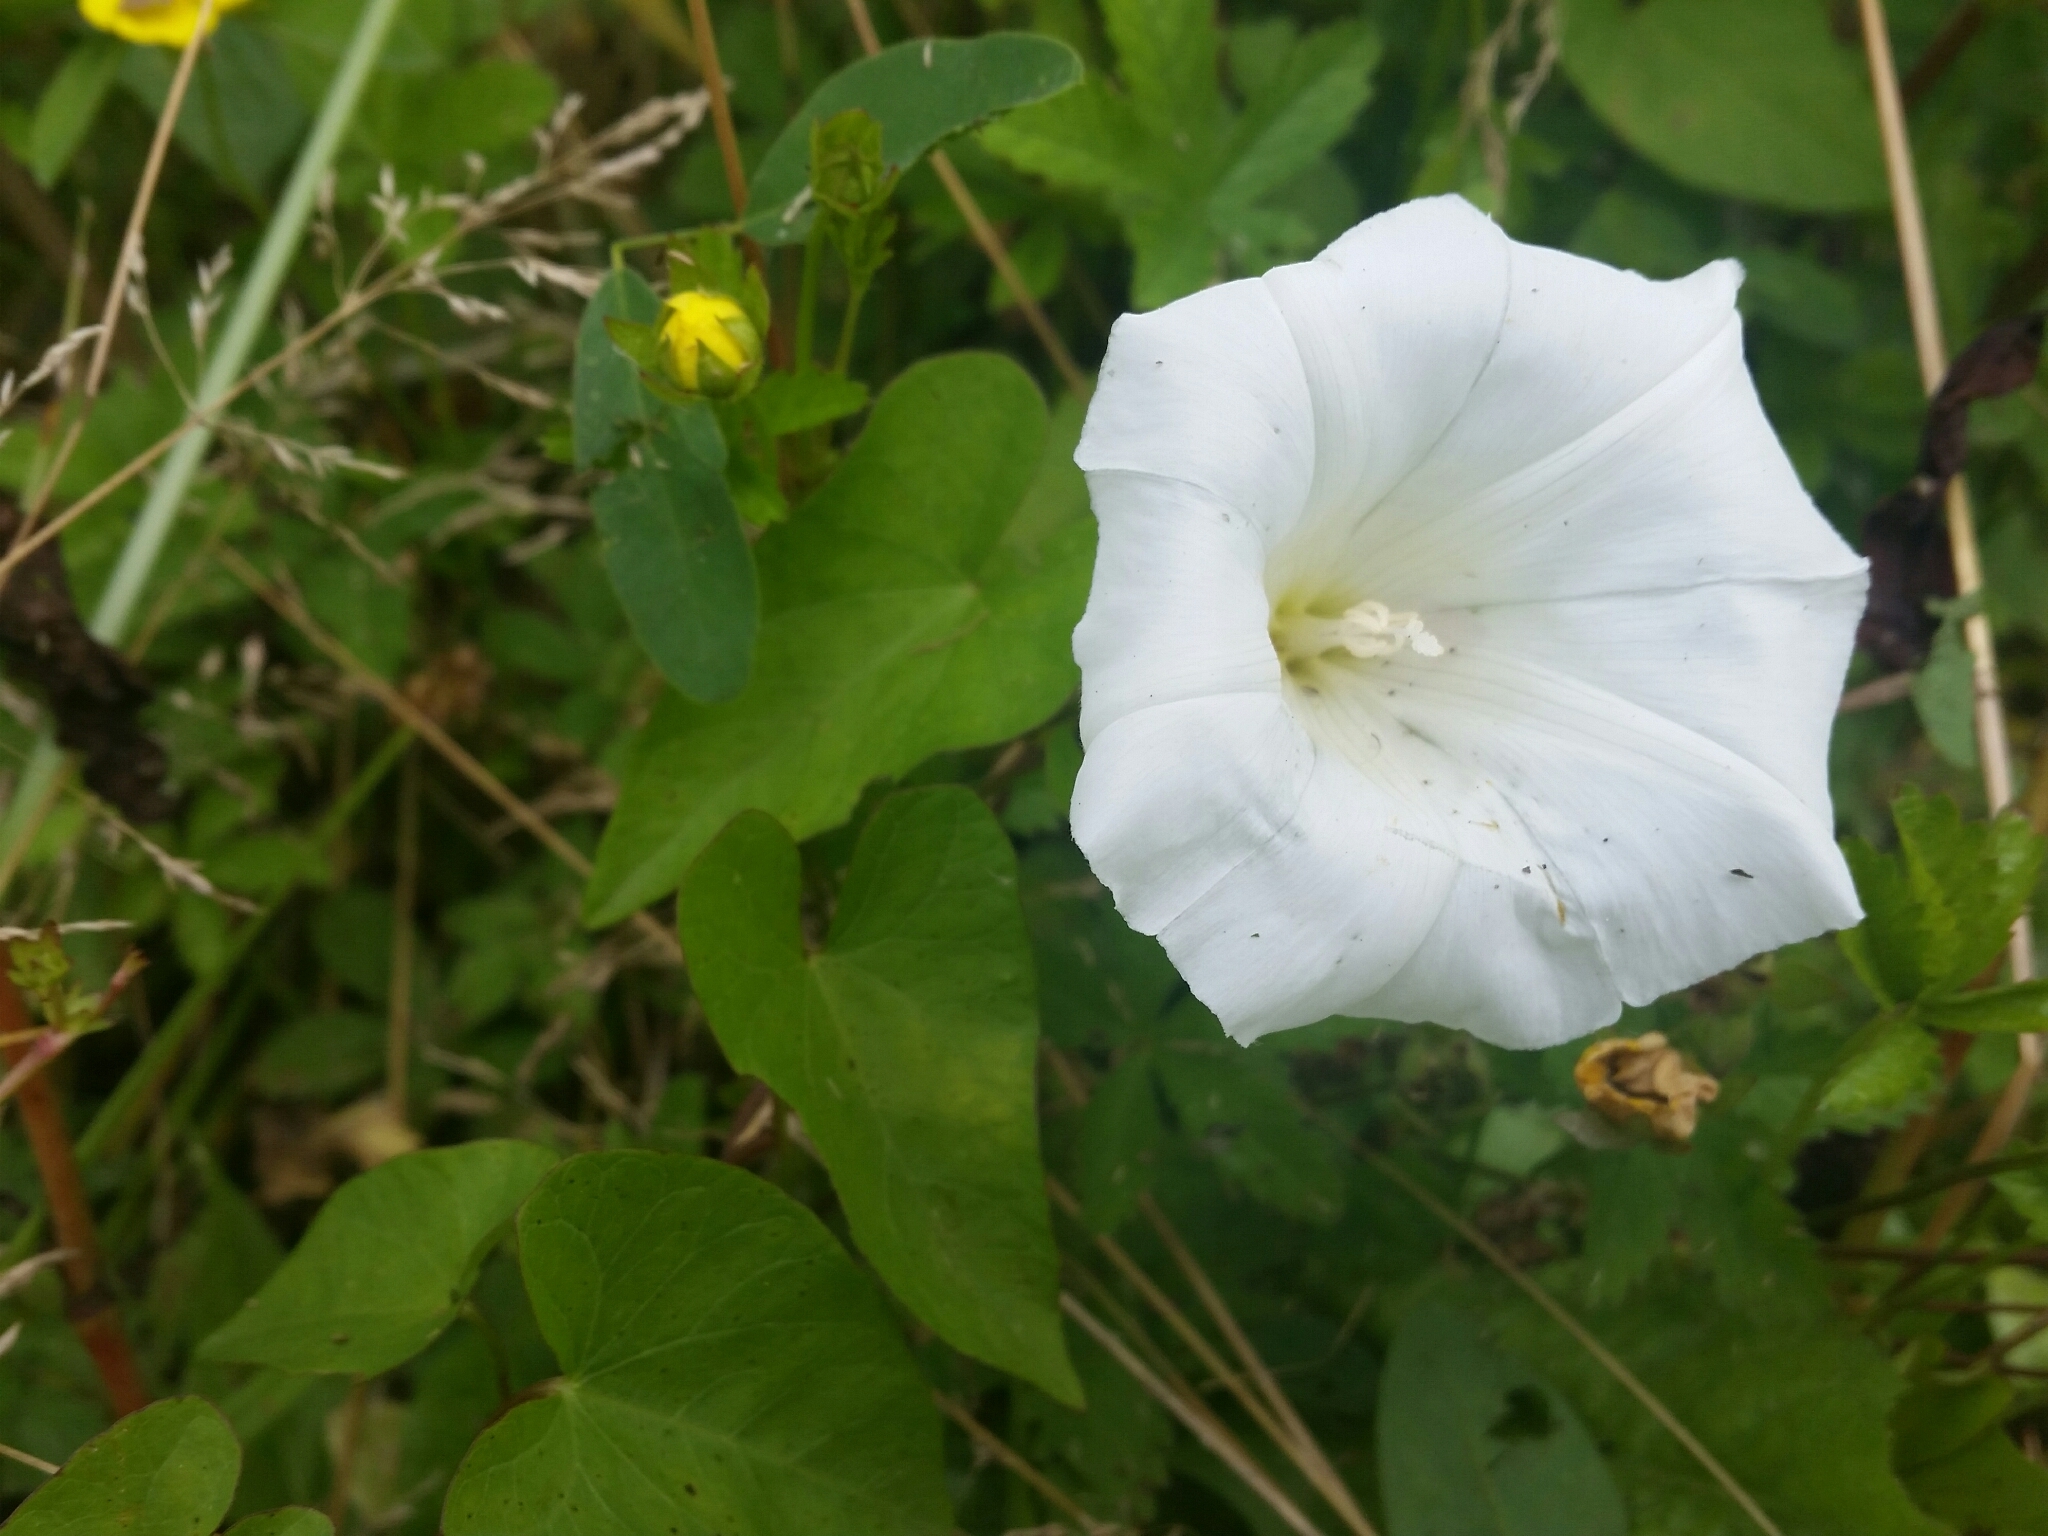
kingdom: Plantae
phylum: Tracheophyta
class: Magnoliopsida
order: Solanales
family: Convolvulaceae
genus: Calystegia
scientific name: Calystegia sepium
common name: Hedge bindweed
